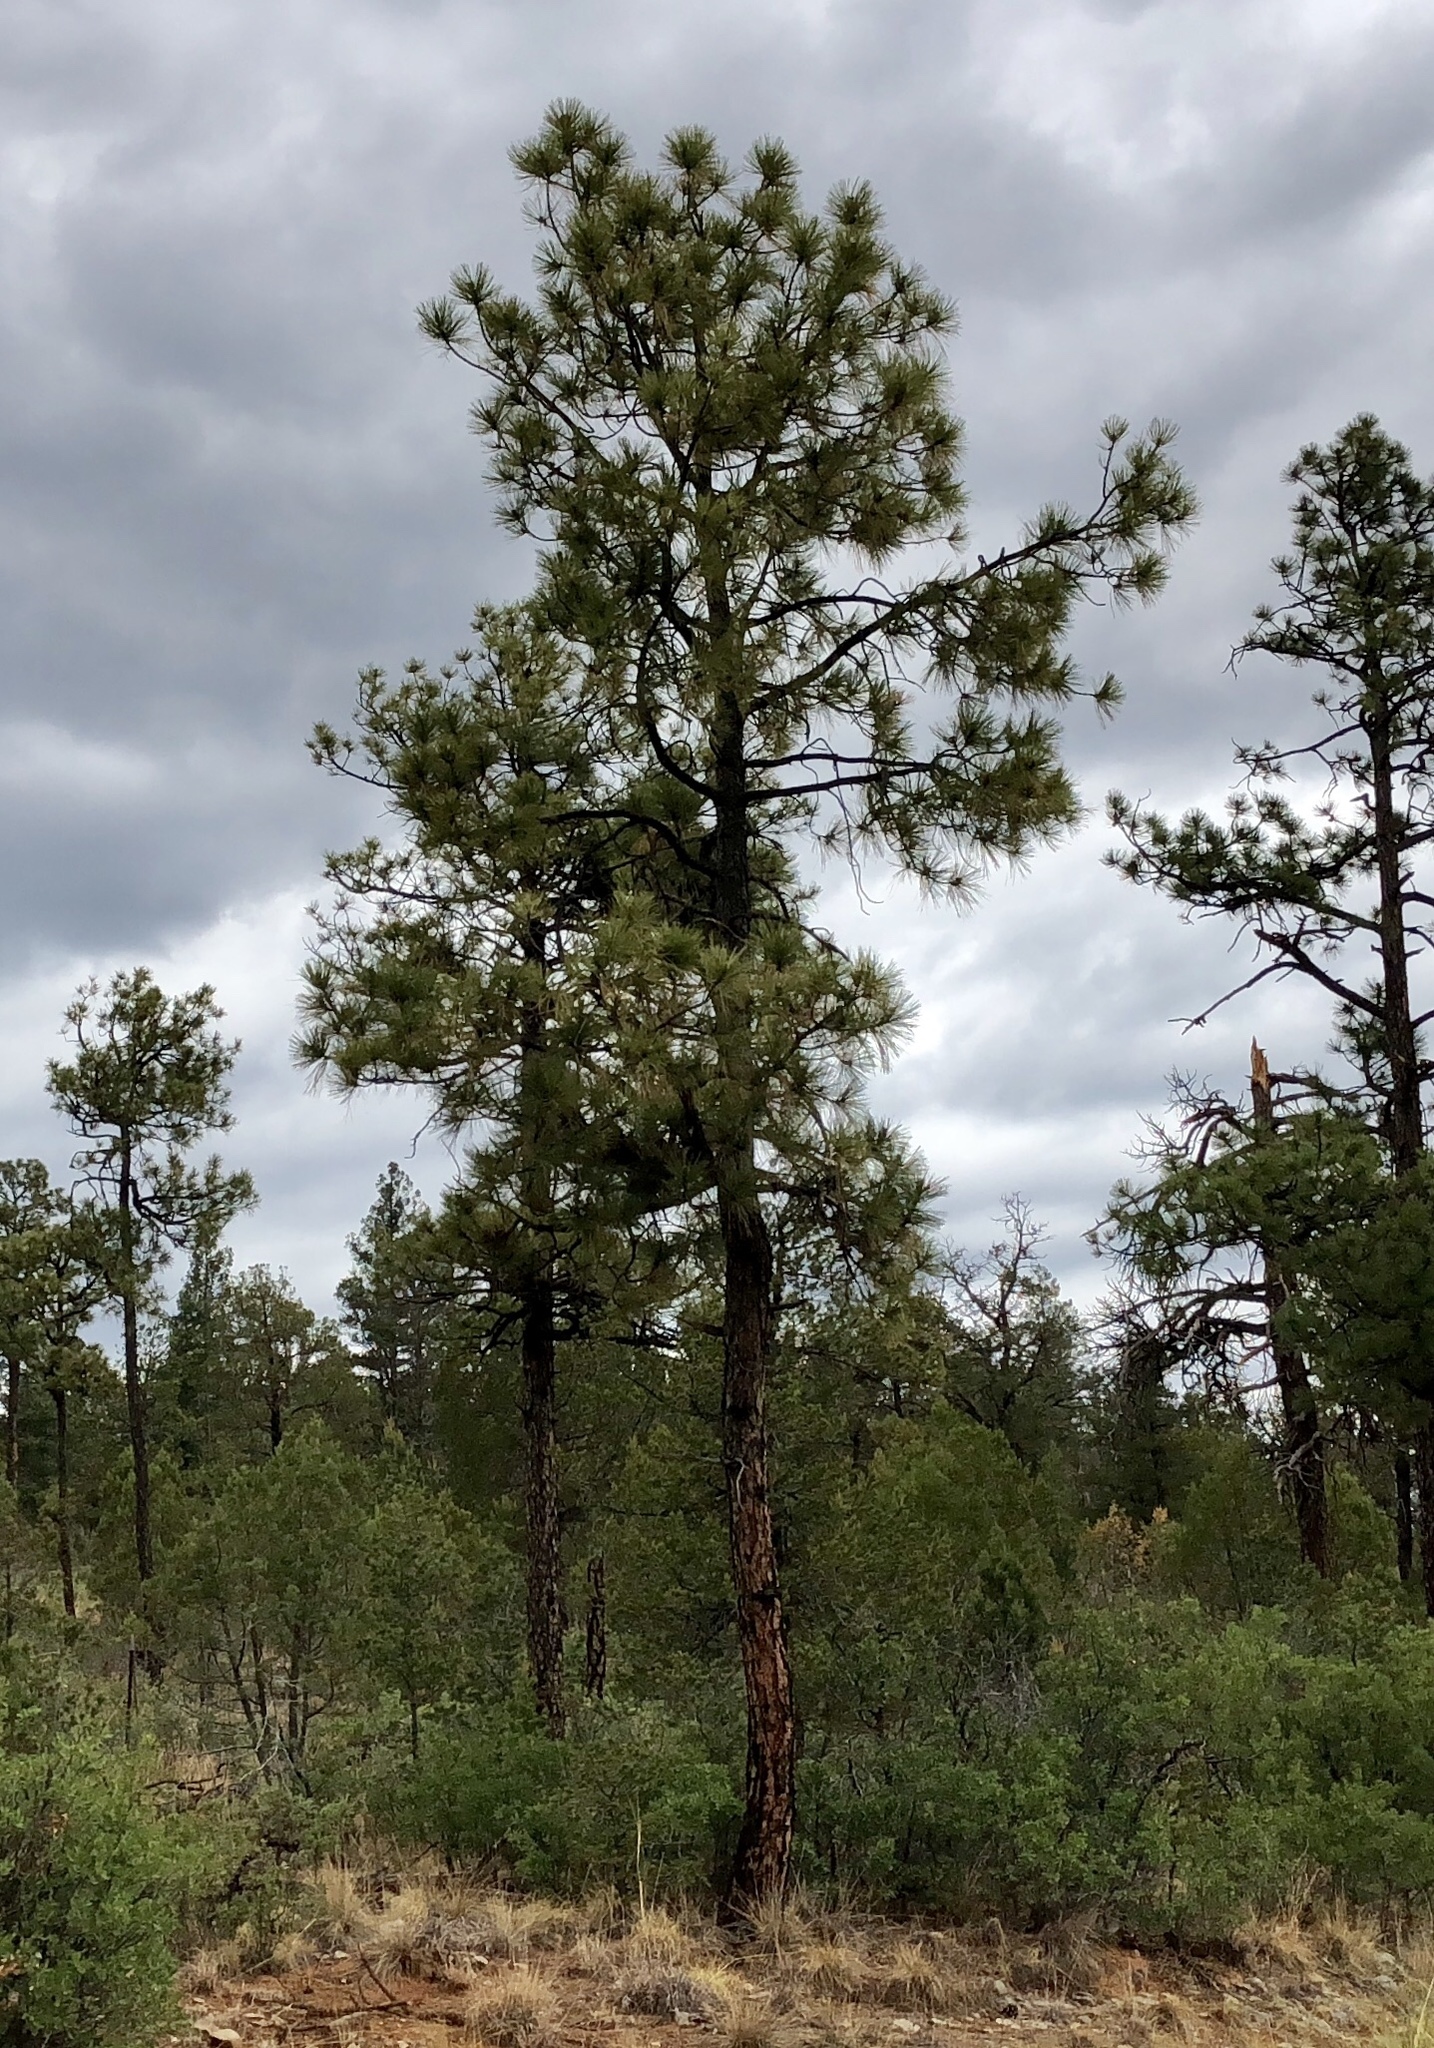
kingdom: Plantae
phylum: Tracheophyta
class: Pinopsida
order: Pinales
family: Pinaceae
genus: Pinus
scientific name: Pinus ponderosa
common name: Western yellow-pine
